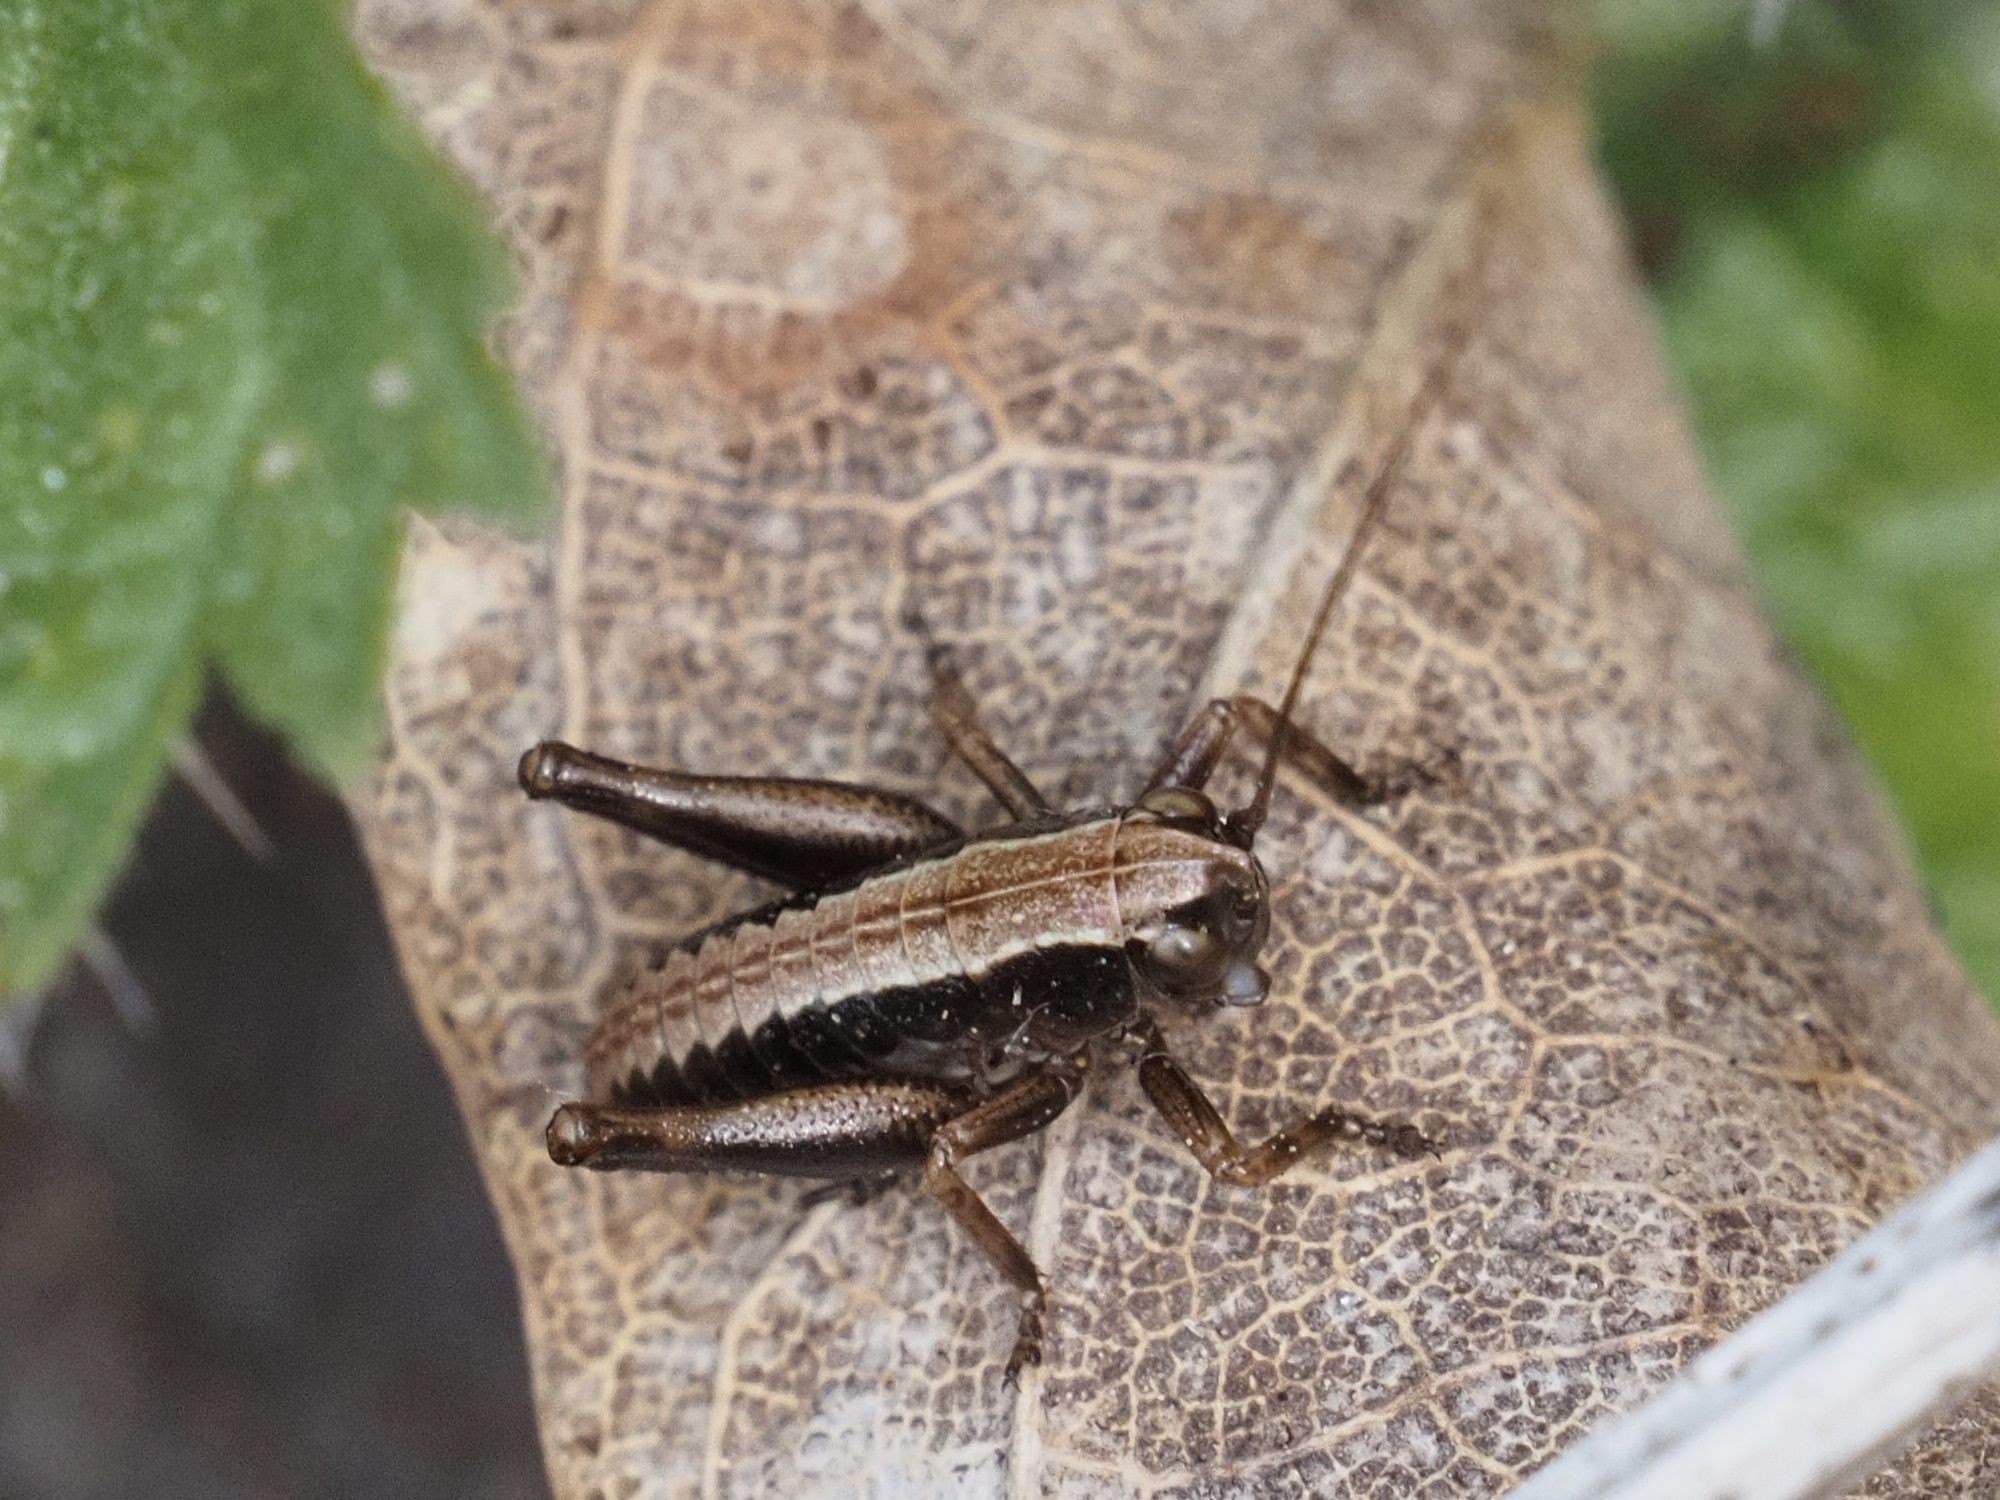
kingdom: Animalia
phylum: Arthropoda
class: Insecta
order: Orthoptera
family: Tettigoniidae
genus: Pholidoptera
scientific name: Pholidoptera griseoaptera
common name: Dark bush-cricket
